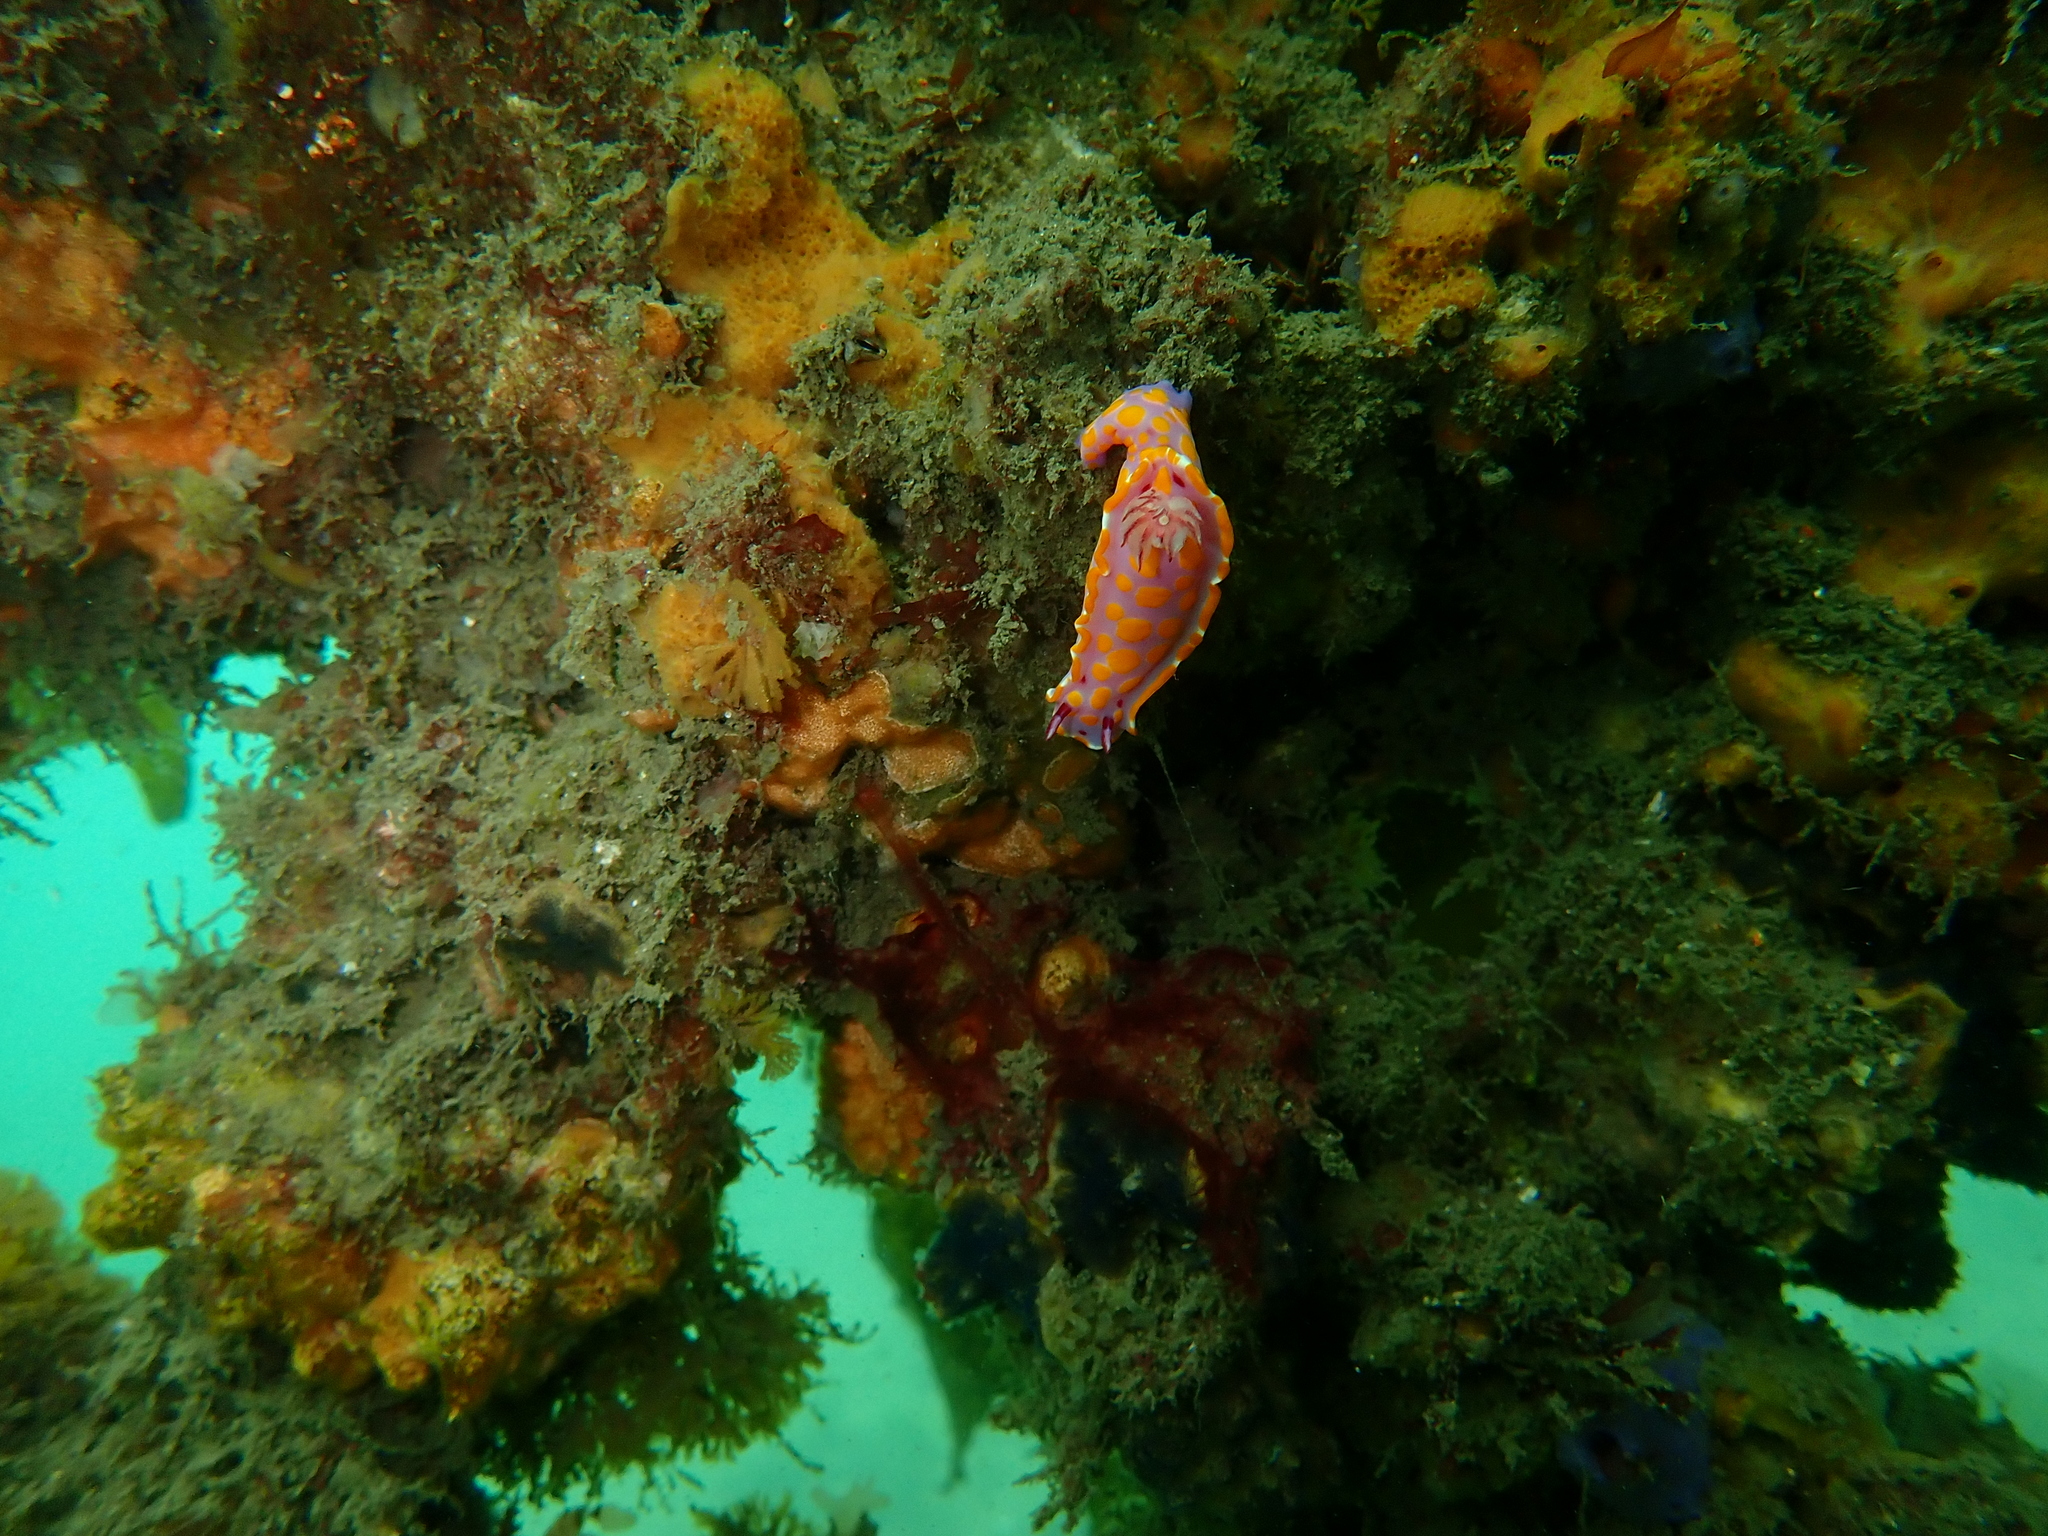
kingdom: Animalia
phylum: Mollusca
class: Gastropoda
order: Nudibranchia
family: Chromodorididae
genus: Ceratosoma
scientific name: Ceratosoma amoenum
